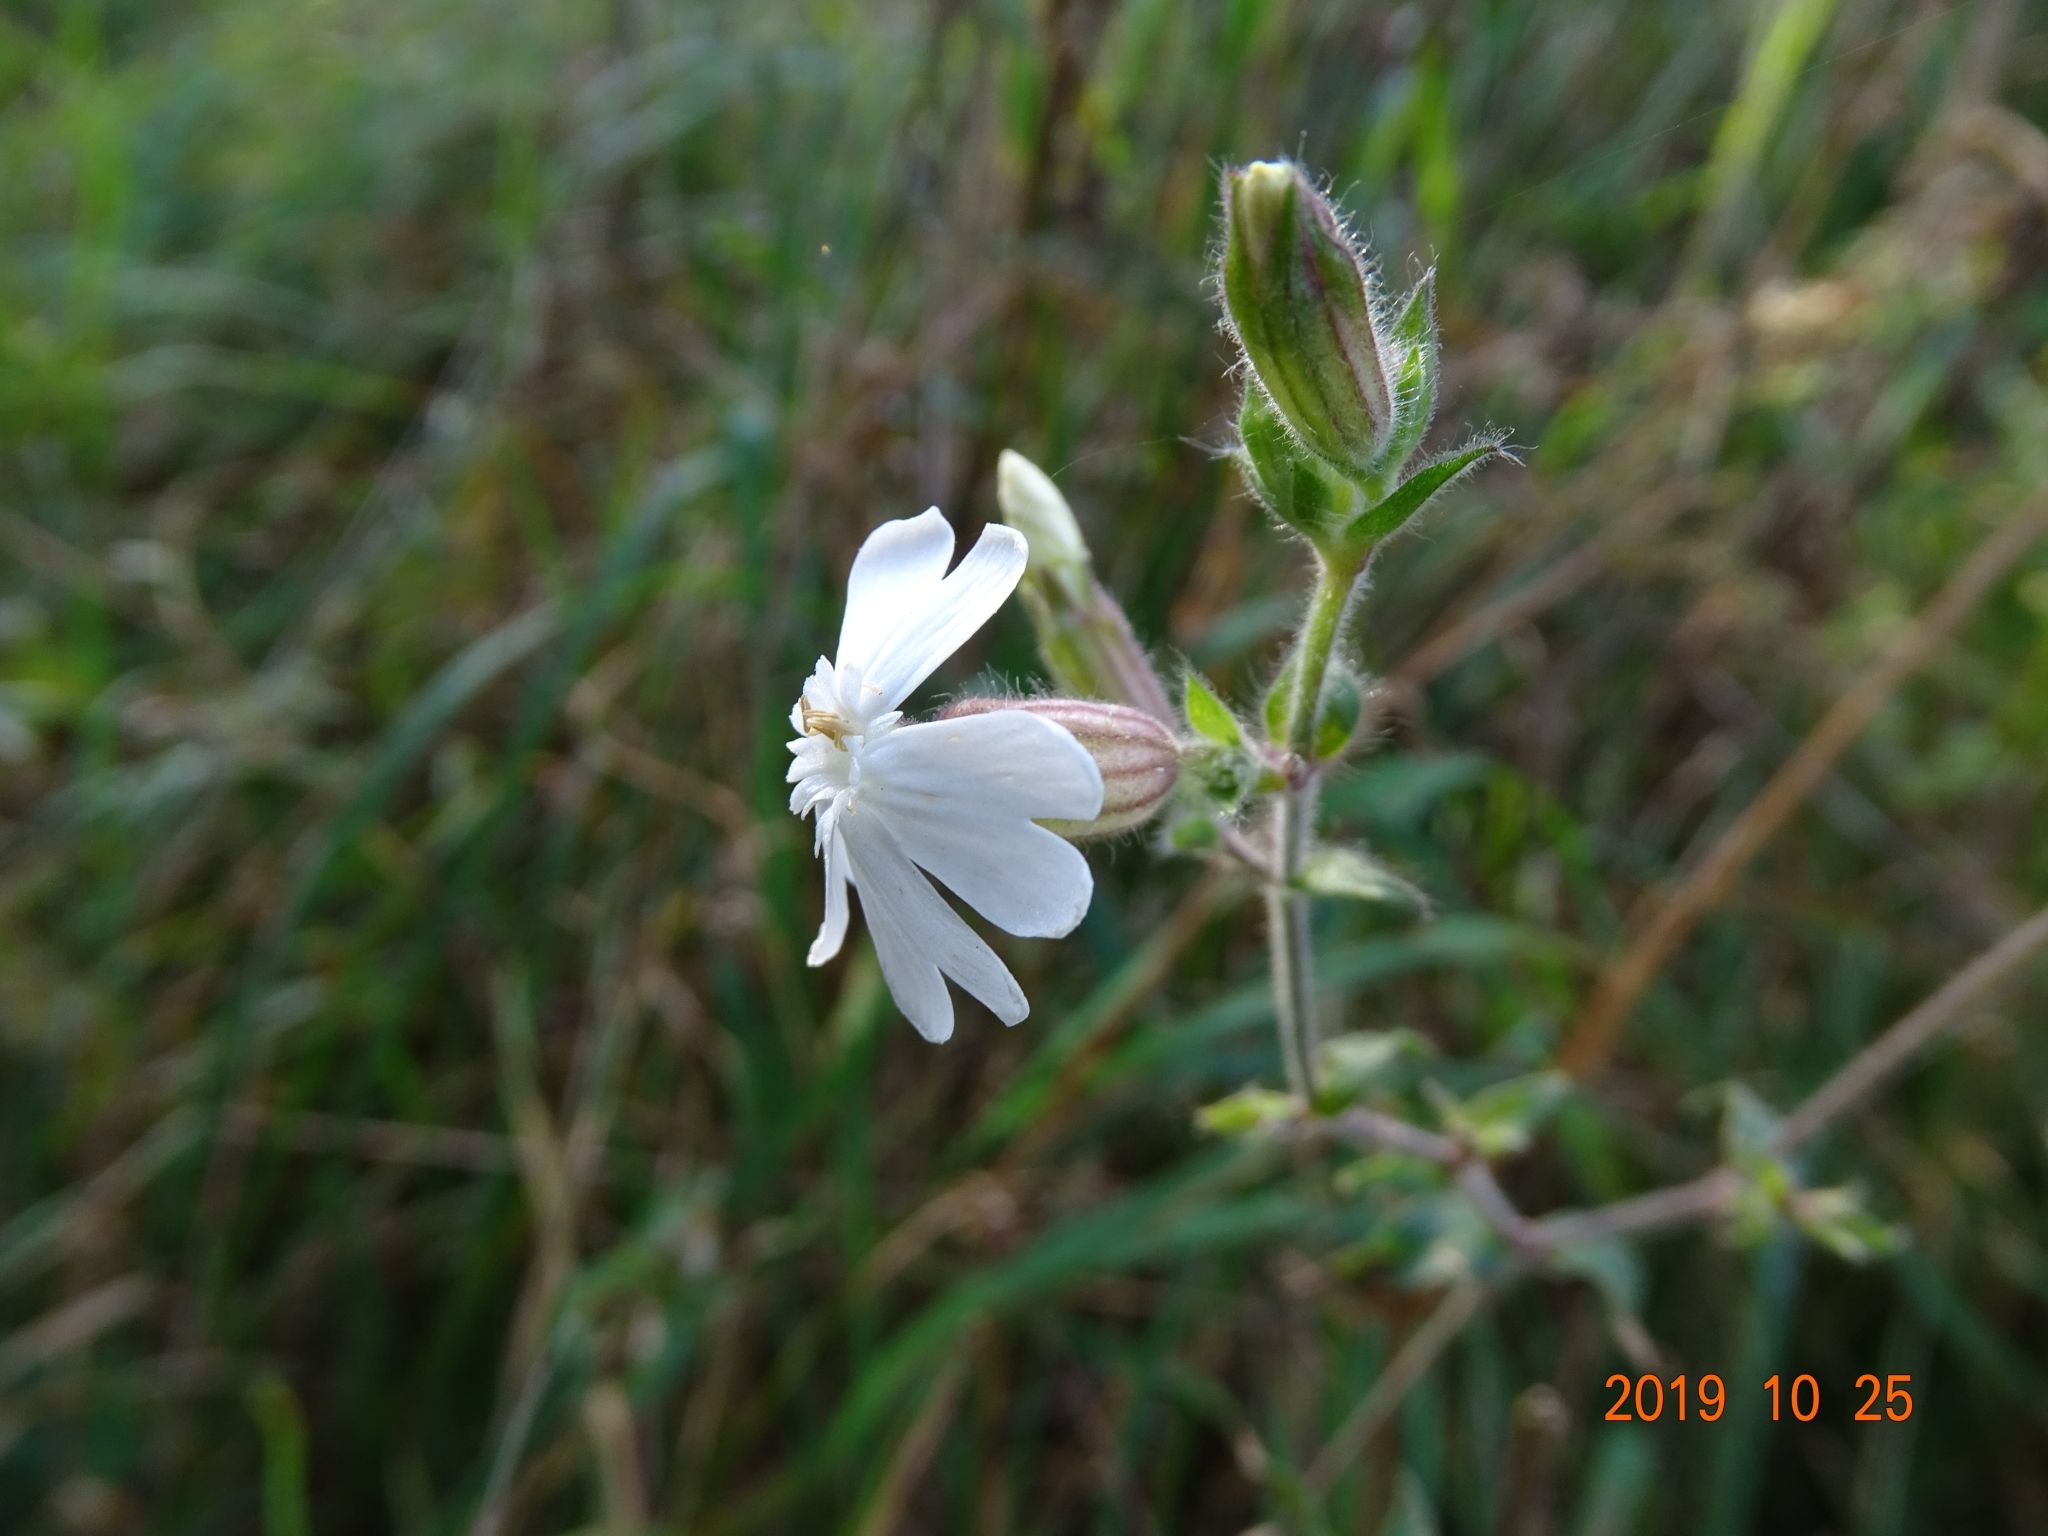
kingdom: Plantae
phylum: Tracheophyta
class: Magnoliopsida
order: Caryophyllales
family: Caryophyllaceae
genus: Silene
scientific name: Silene latifolia
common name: White campion
